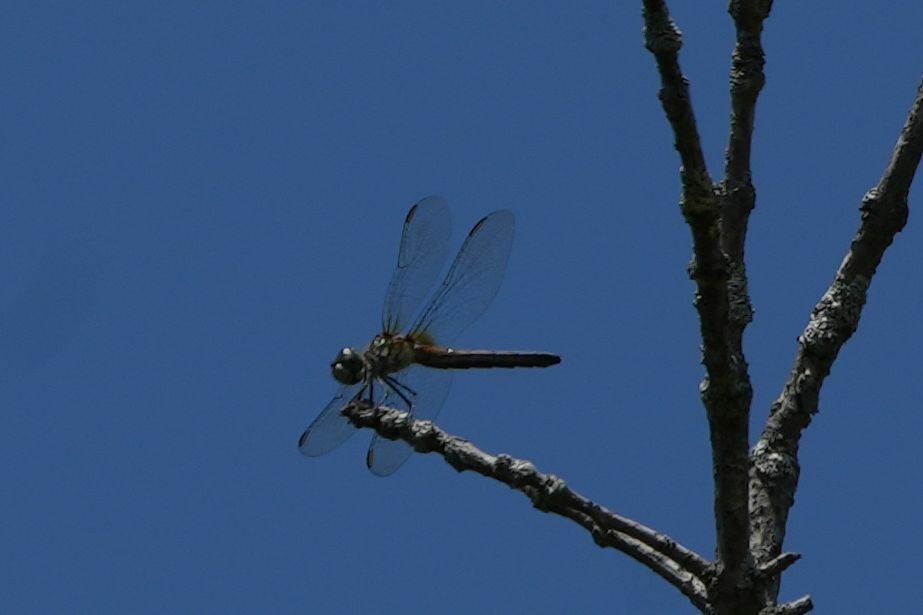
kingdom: Animalia
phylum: Arthropoda
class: Insecta
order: Odonata
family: Libellulidae
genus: Pachydiplax
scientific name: Pachydiplax longipennis
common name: Blue dasher
